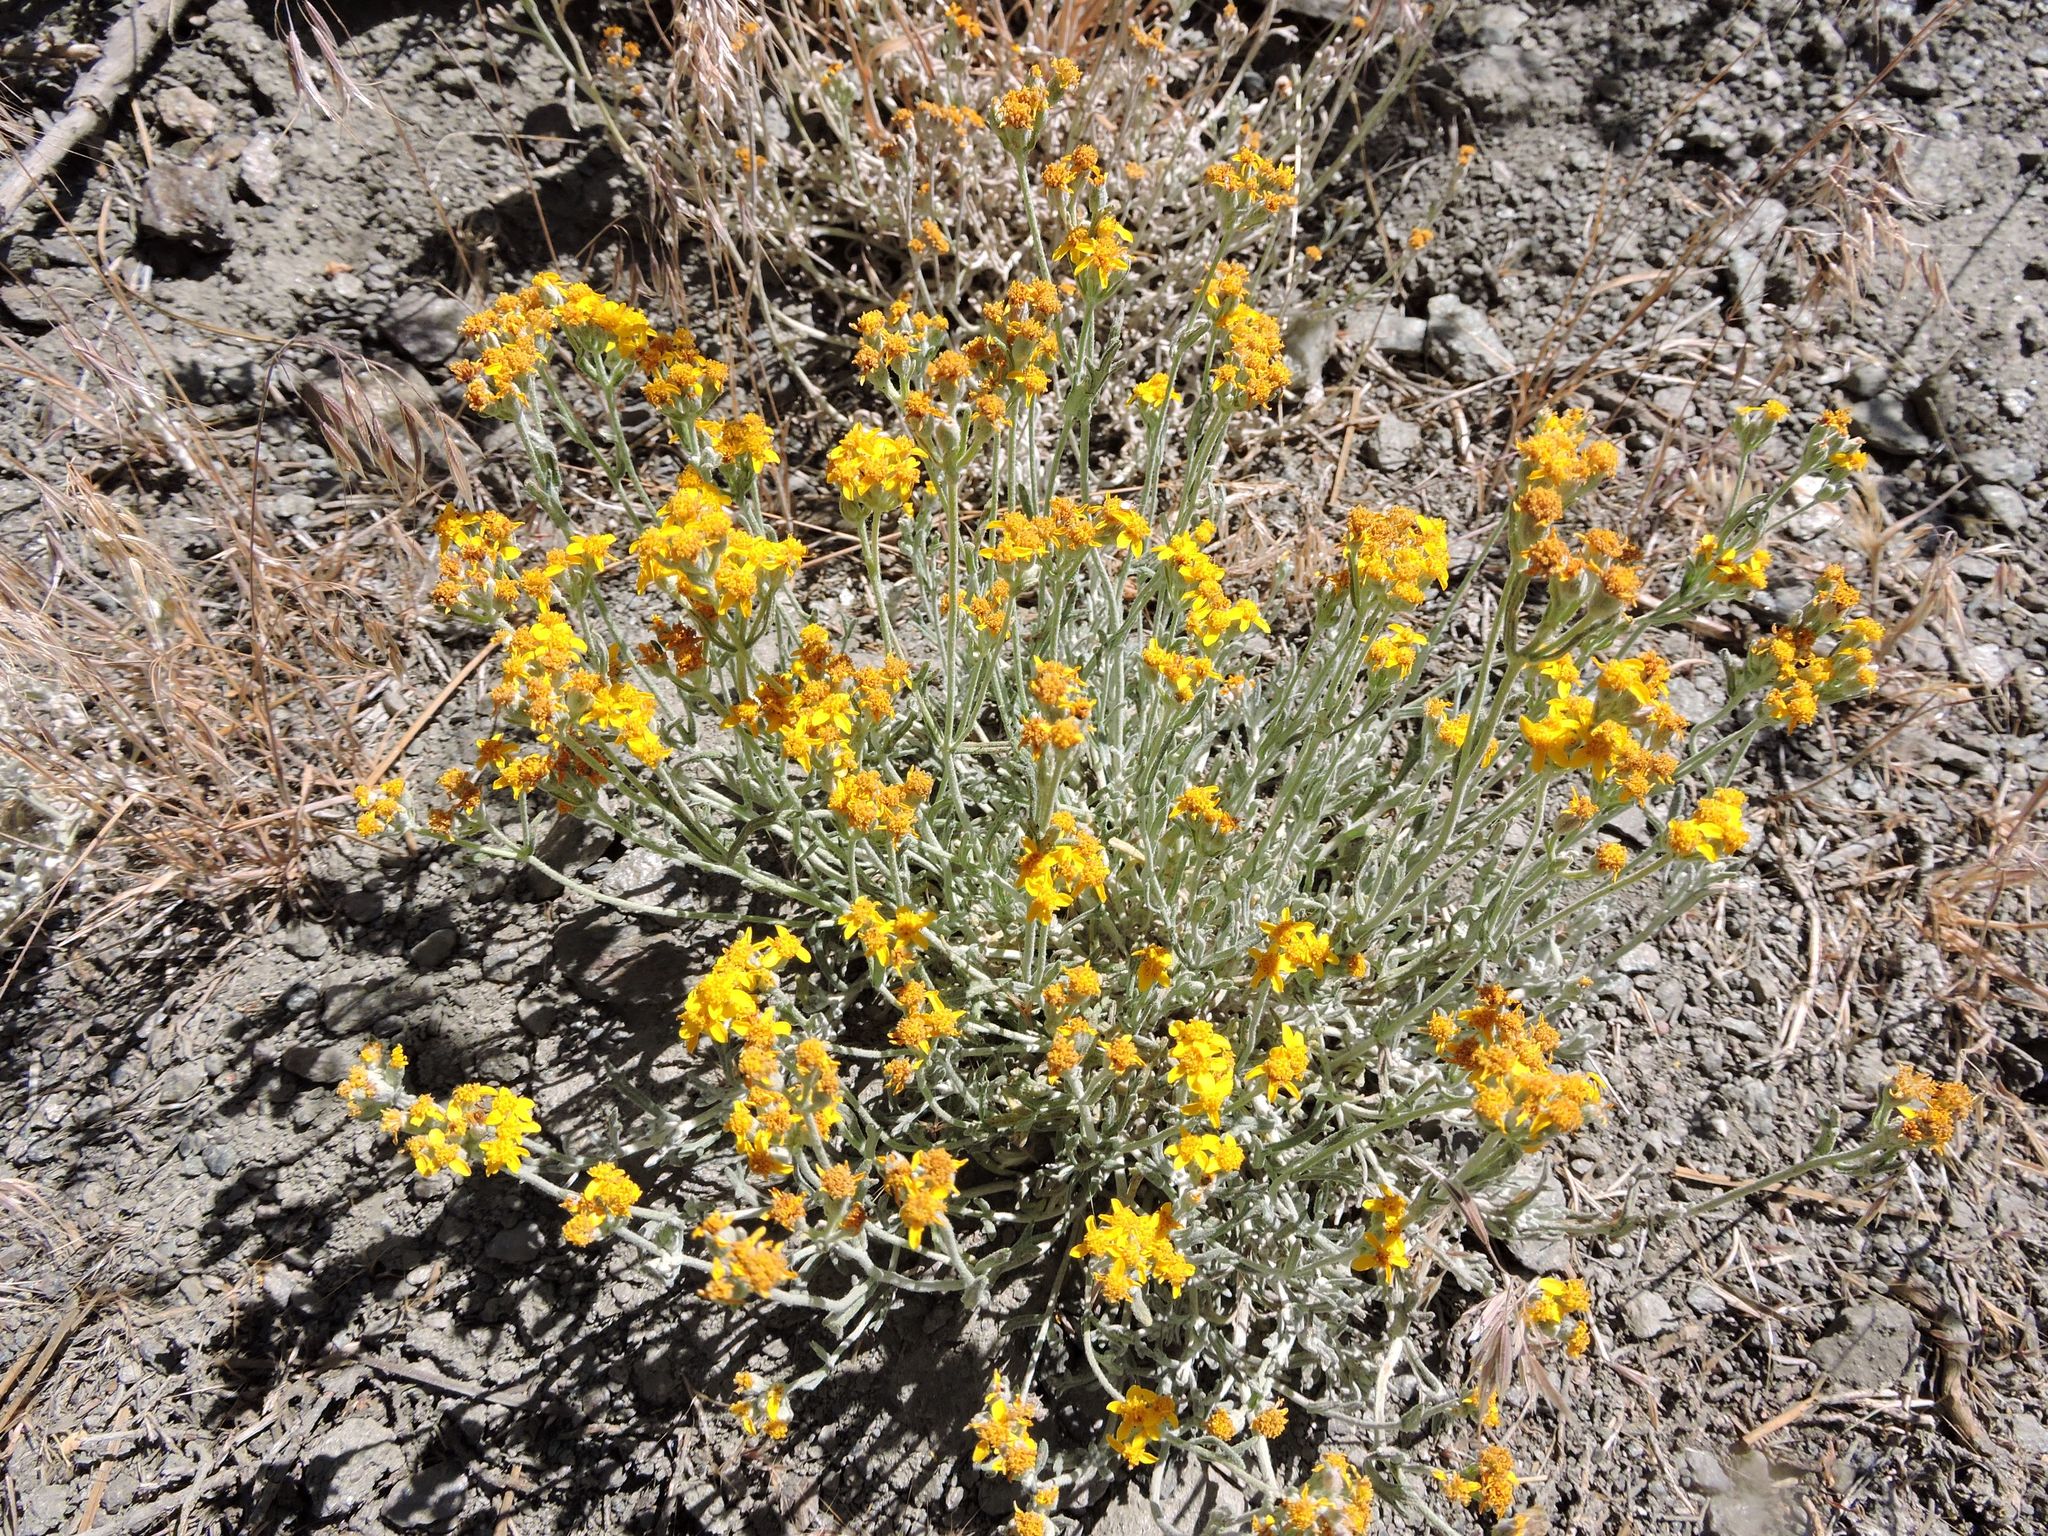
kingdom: Plantae
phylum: Tracheophyta
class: Magnoliopsida
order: Asterales
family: Asteraceae
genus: Eriophyllum
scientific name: Eriophyllum ambiguum
